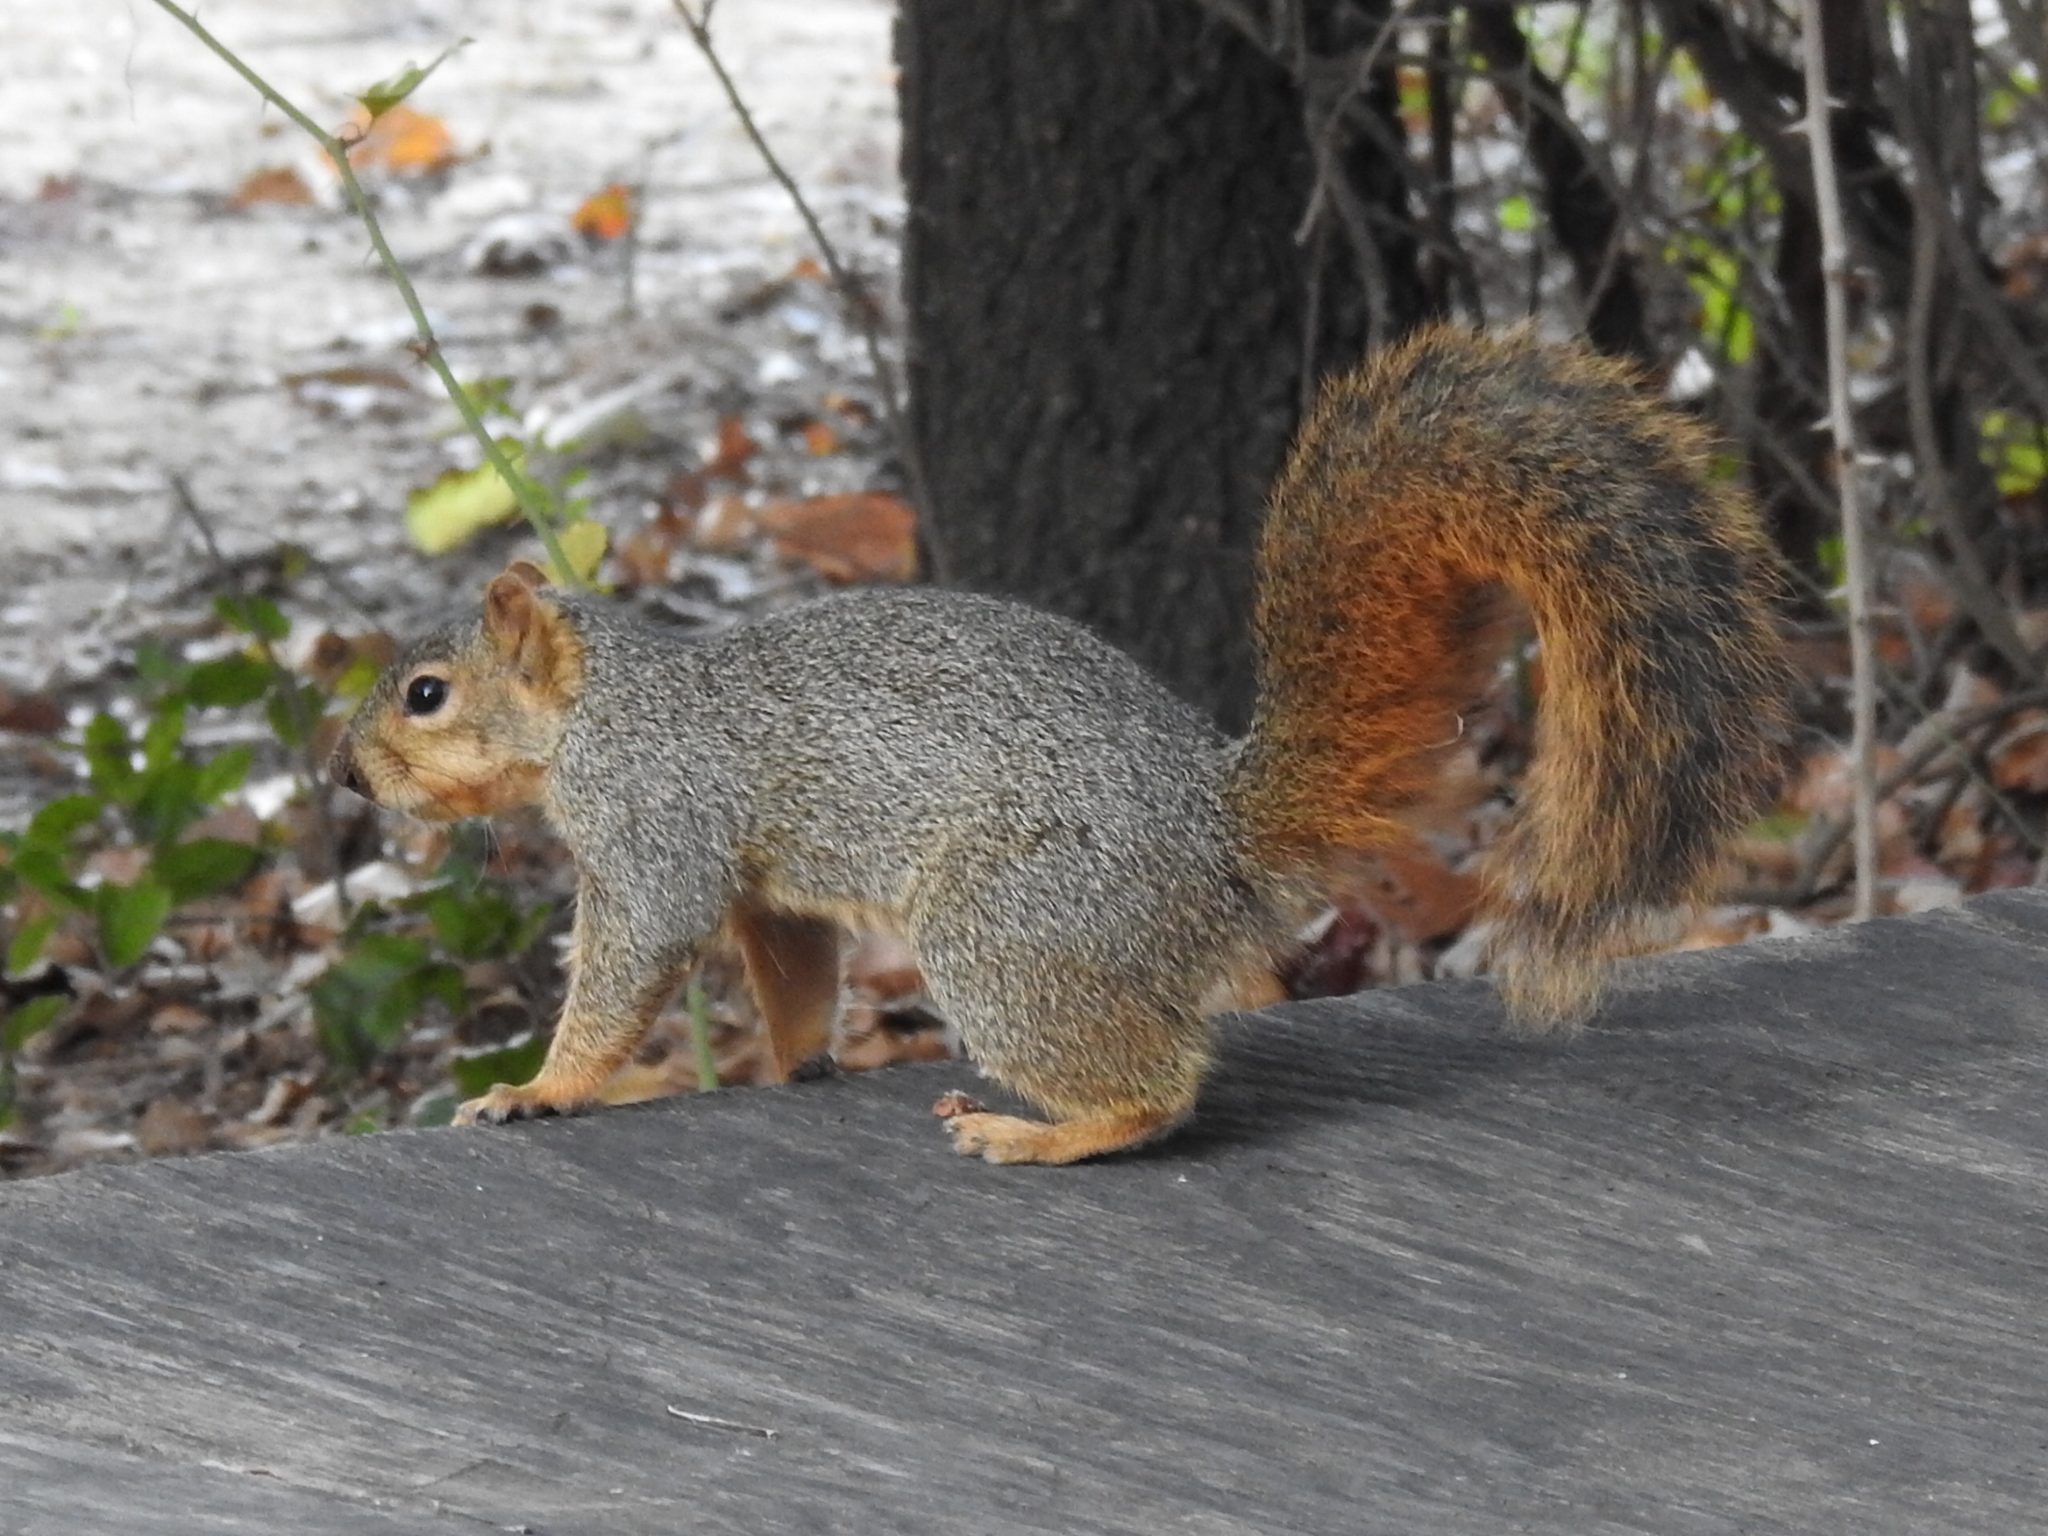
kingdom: Animalia
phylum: Chordata
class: Mammalia
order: Rodentia
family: Sciuridae
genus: Sciurus
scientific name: Sciurus niger
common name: Fox squirrel
